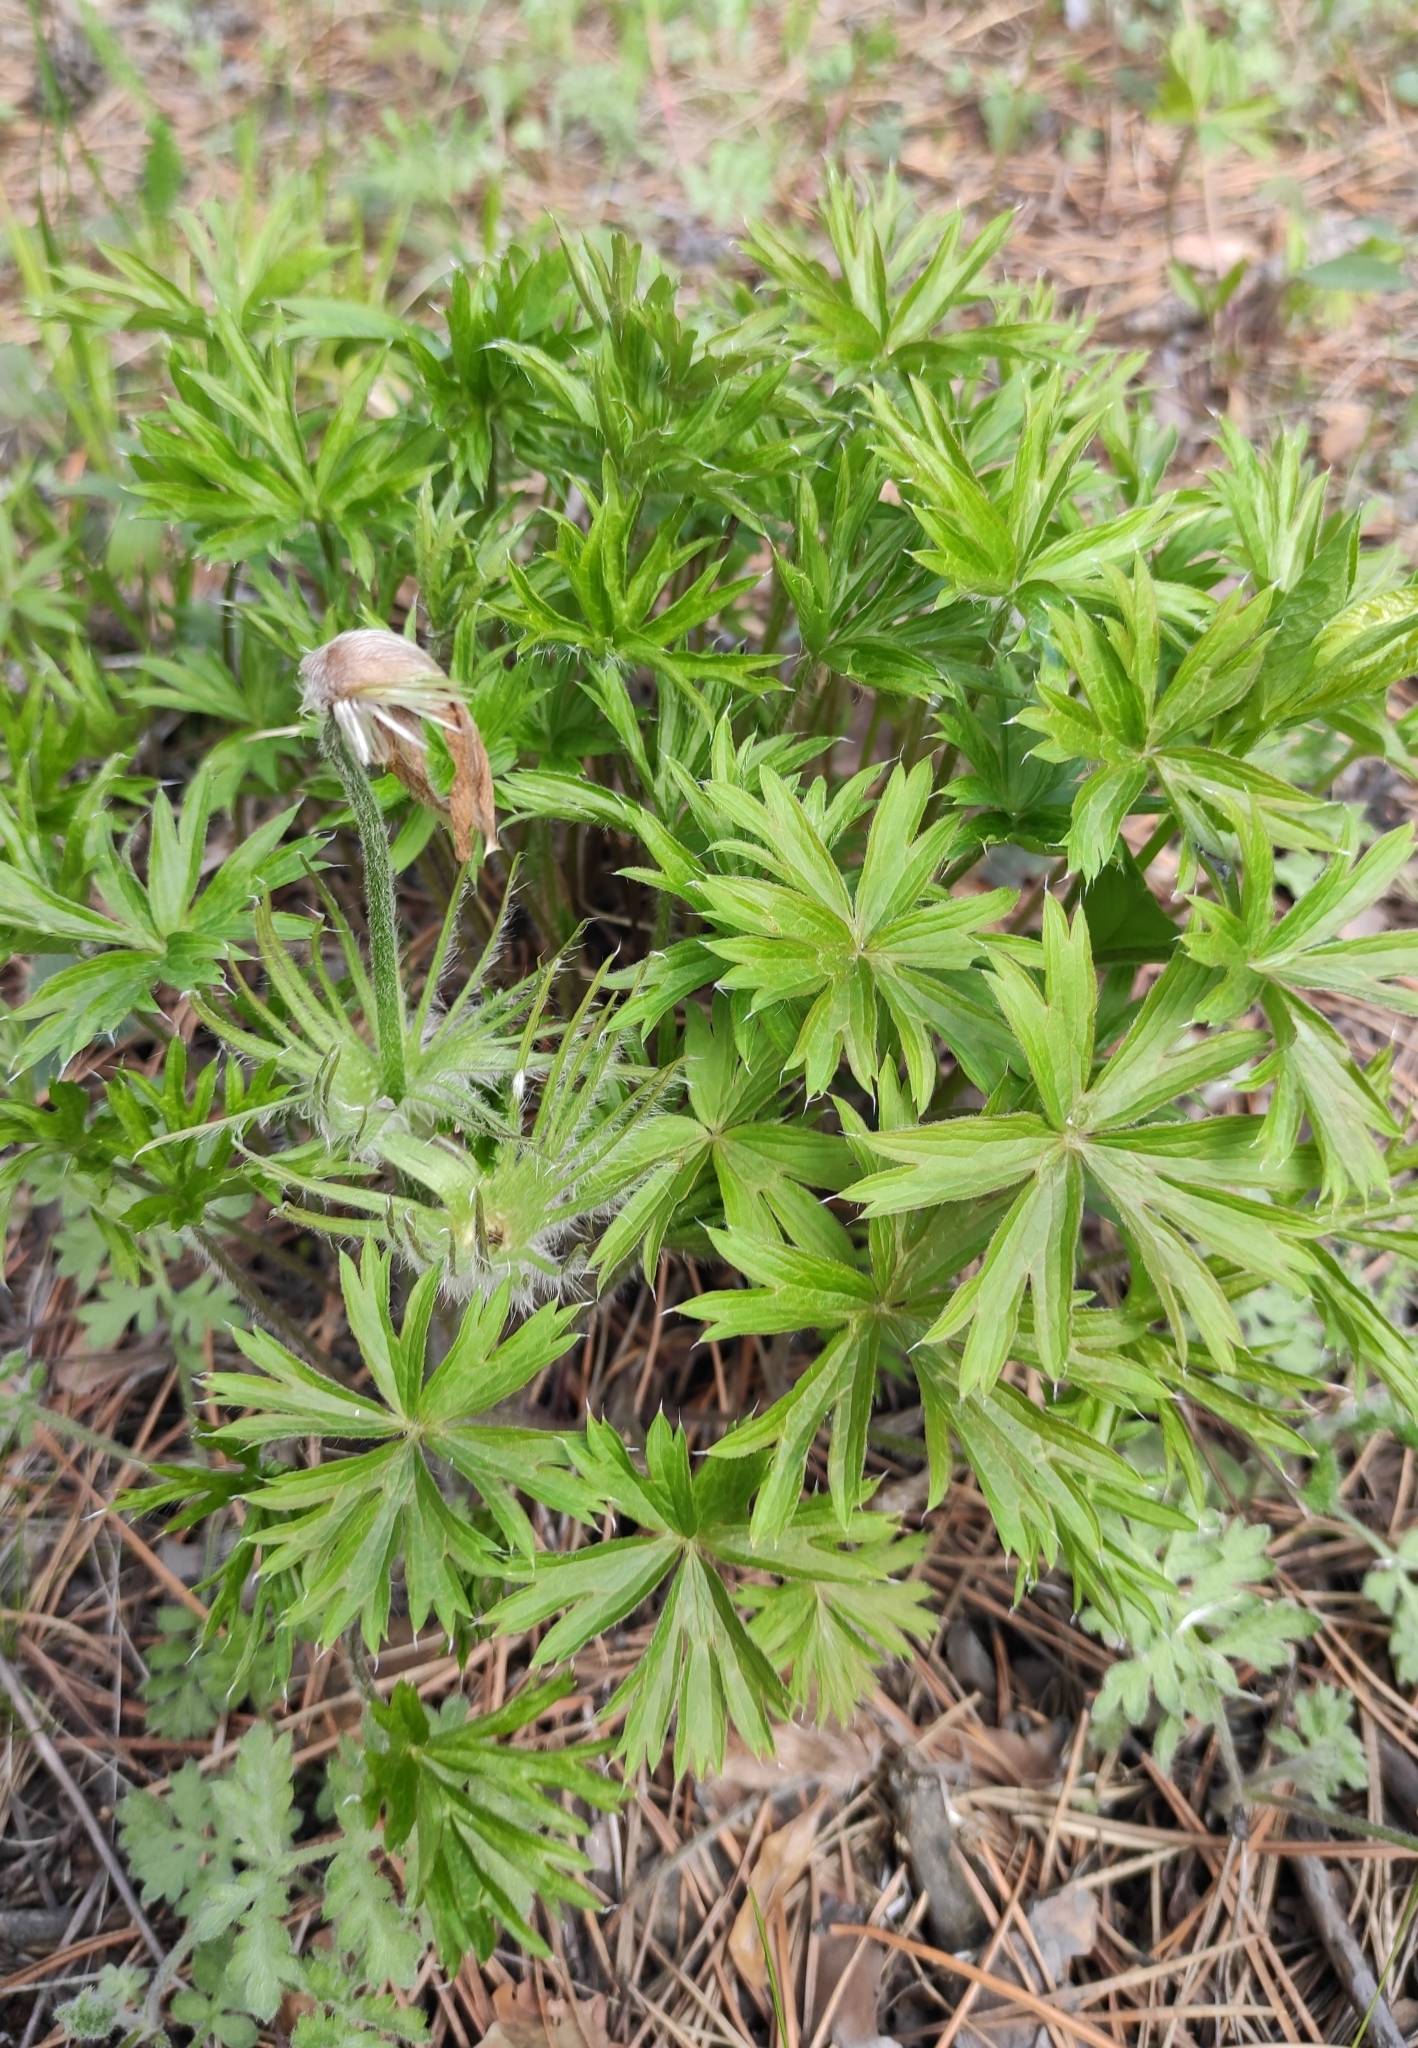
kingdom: Plantae
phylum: Tracheophyta
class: Magnoliopsida
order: Ranunculales
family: Ranunculaceae
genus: Pulsatilla
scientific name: Pulsatilla patens
